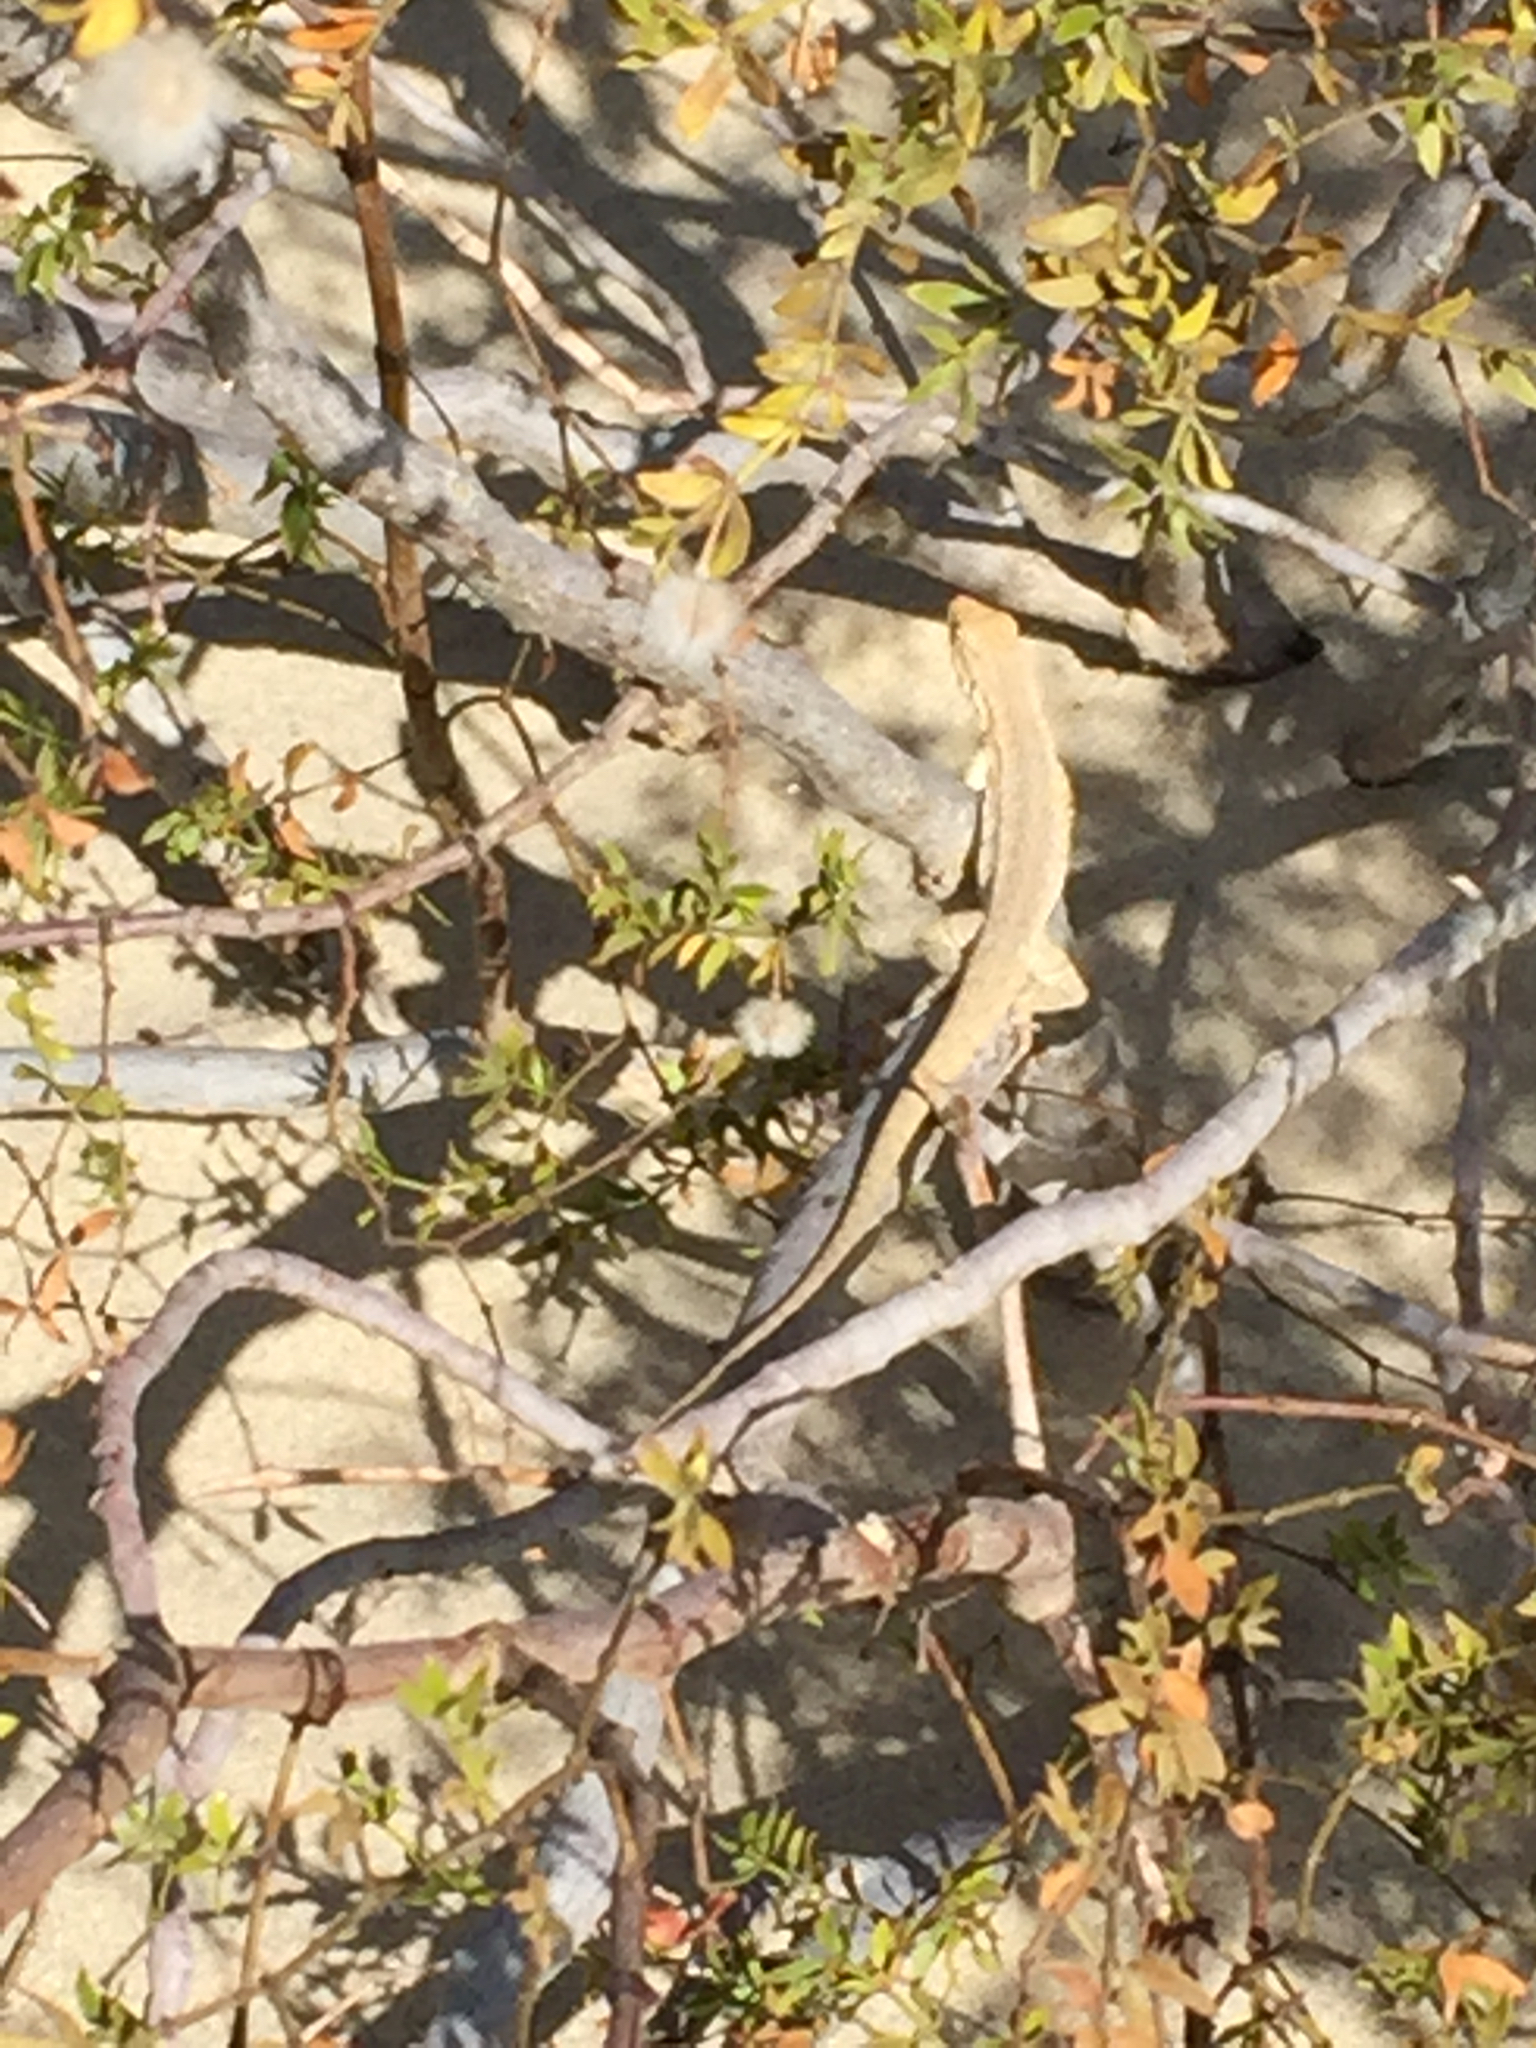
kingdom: Animalia
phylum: Chordata
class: Squamata
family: Phrynosomatidae
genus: Urosaurus
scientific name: Urosaurus graciosus
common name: Long-tailed brush lizard
